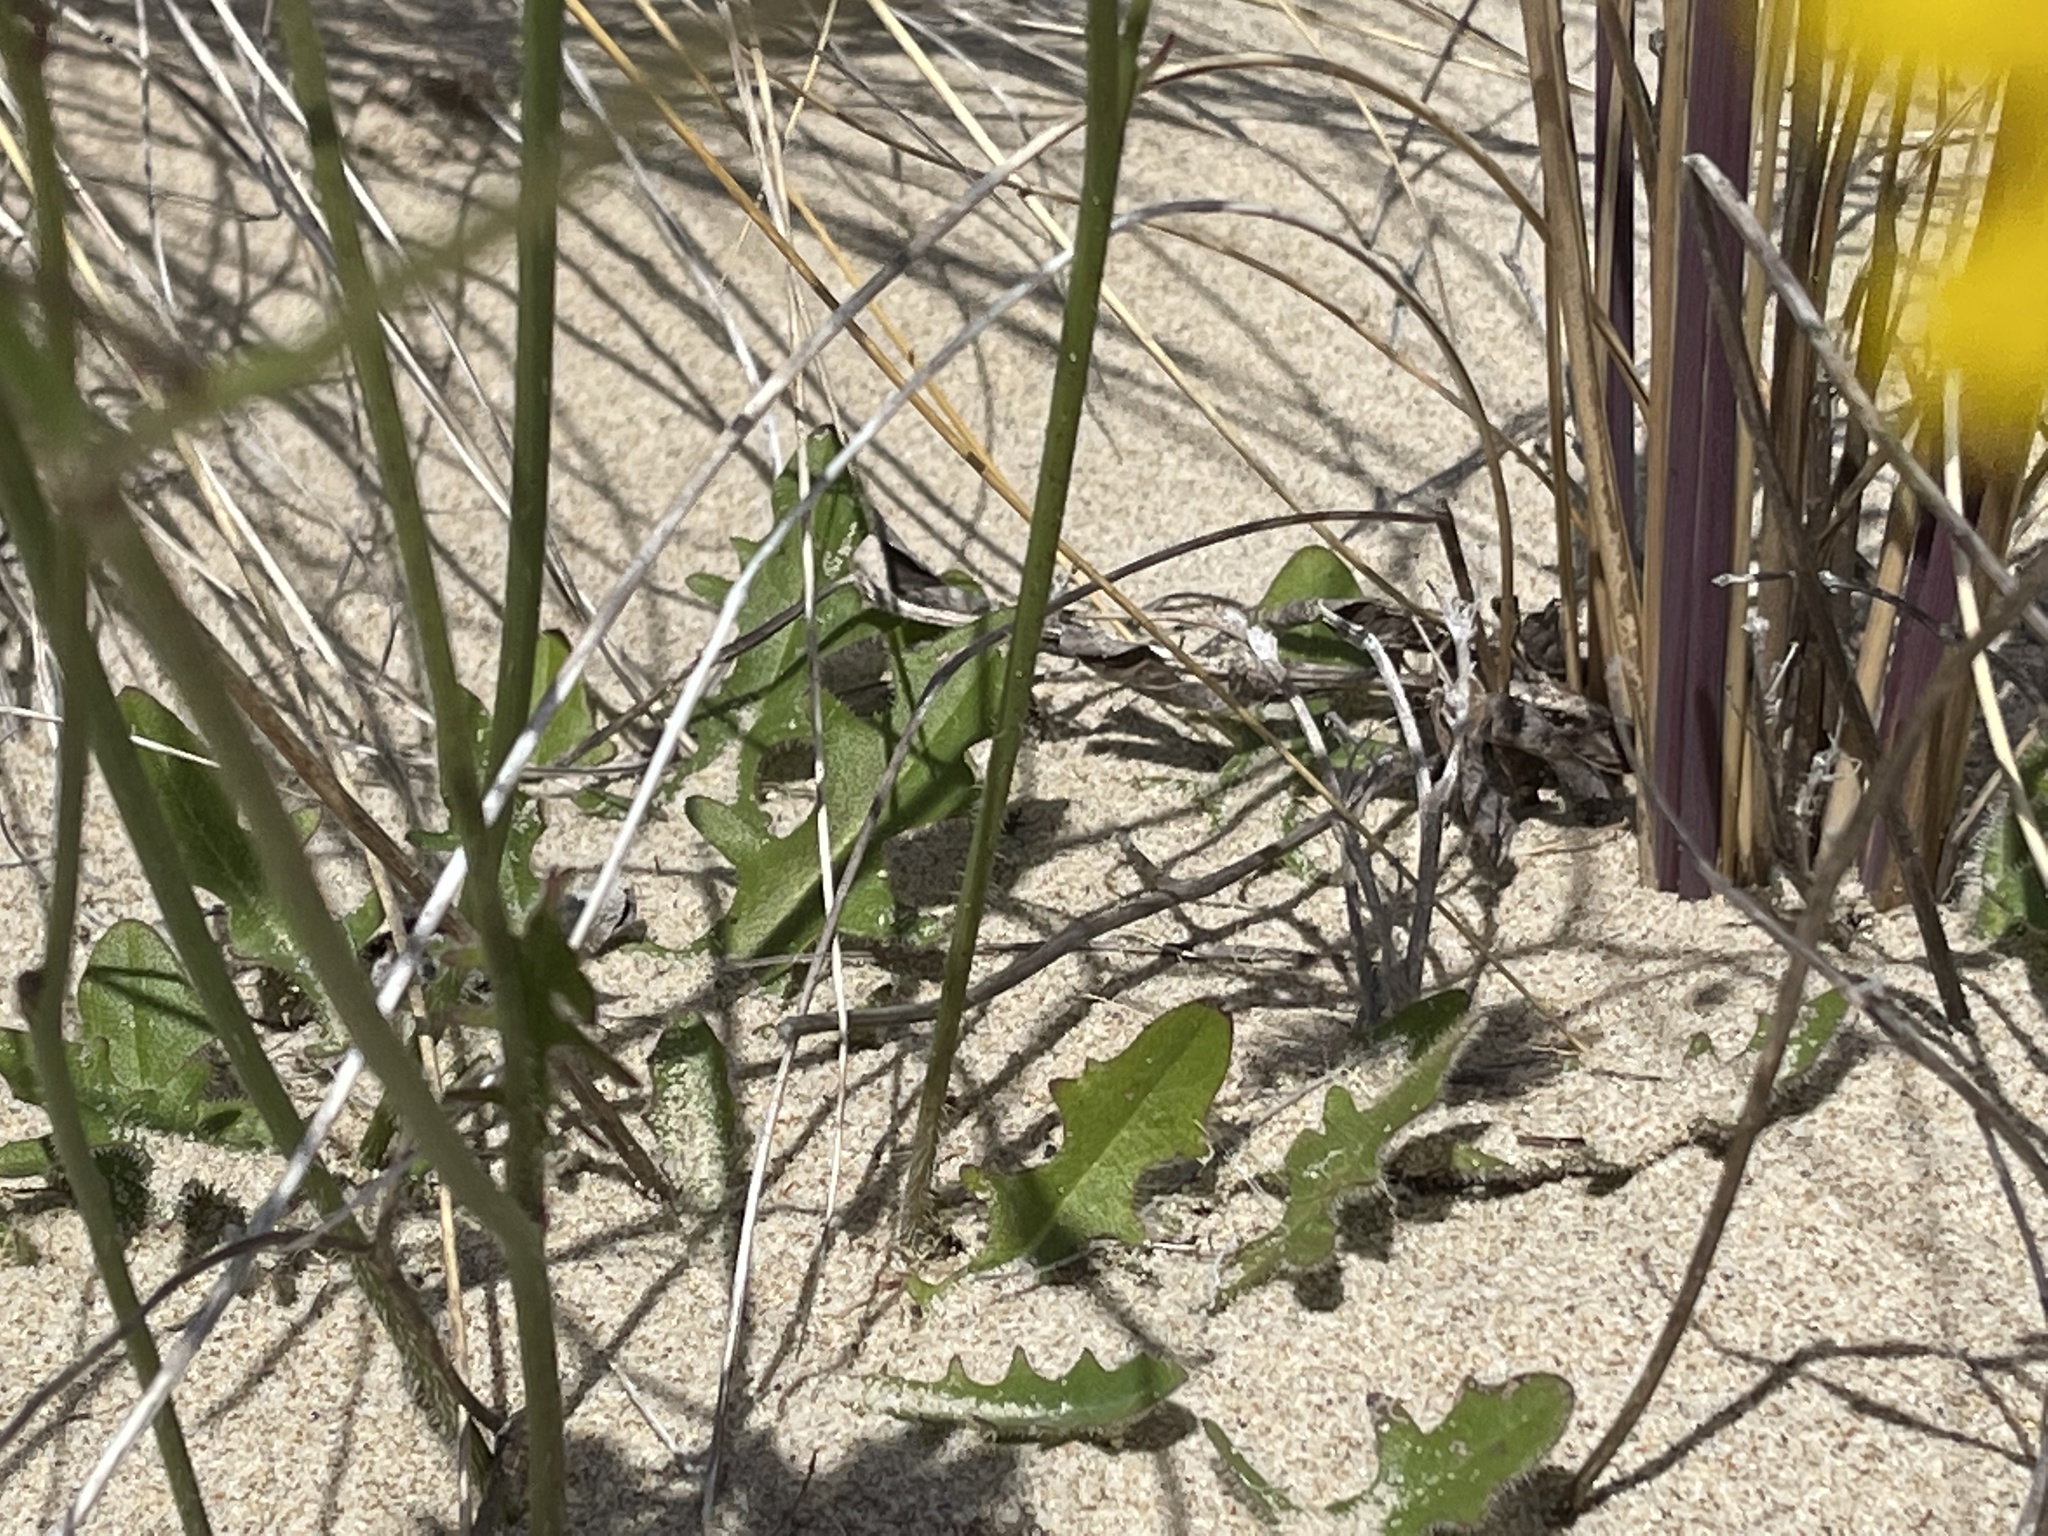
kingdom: Plantae
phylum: Tracheophyta
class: Magnoliopsida
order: Asterales
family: Asteraceae
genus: Hypochaeris
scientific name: Hypochaeris radicata
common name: Flatweed
